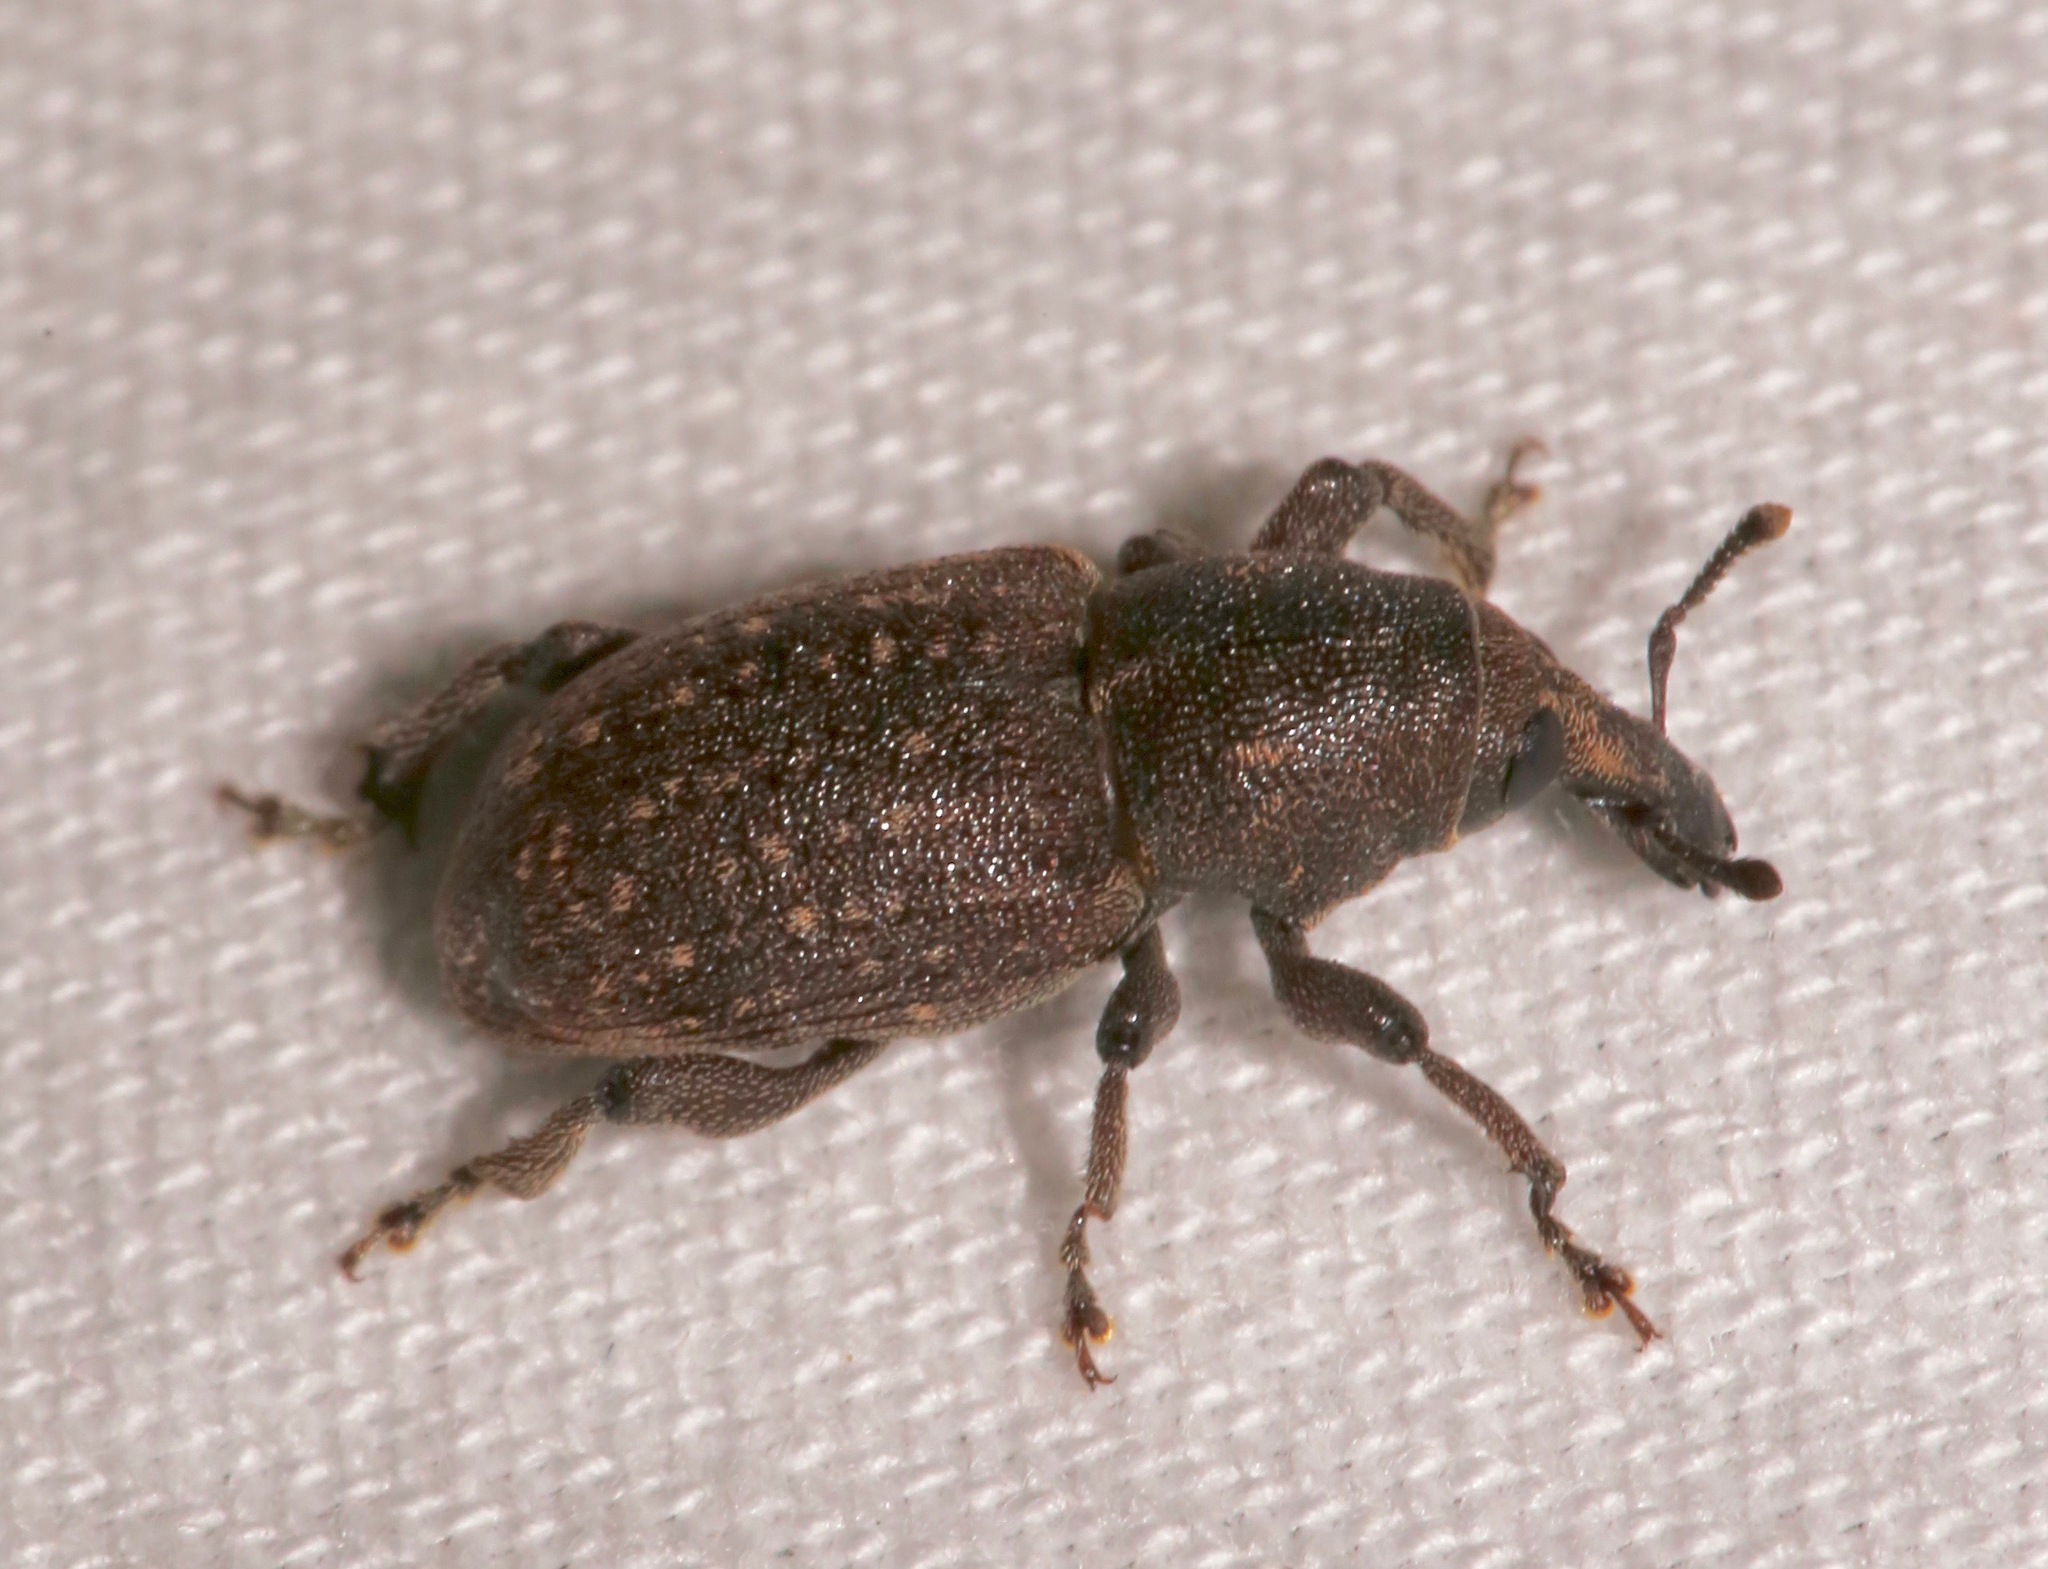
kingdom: Animalia
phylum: Arthropoda
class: Insecta
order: Coleoptera
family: Curculionidae
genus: Pachylobius
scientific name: Pachylobius picivorus
